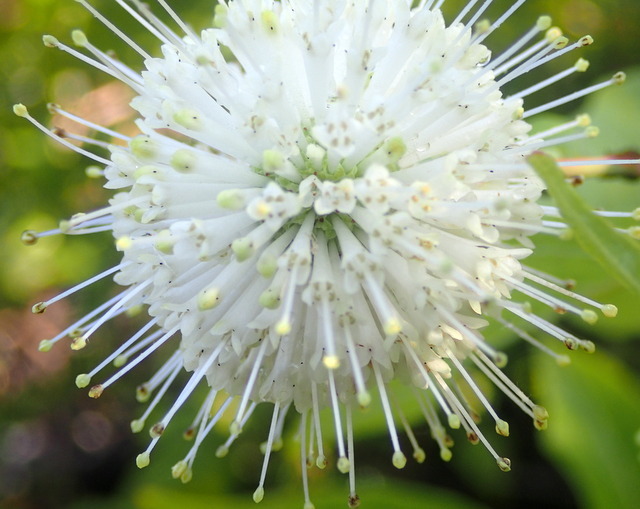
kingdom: Plantae
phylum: Tracheophyta
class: Magnoliopsida
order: Gentianales
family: Rubiaceae
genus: Cephalanthus
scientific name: Cephalanthus occidentalis
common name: Button-willow
